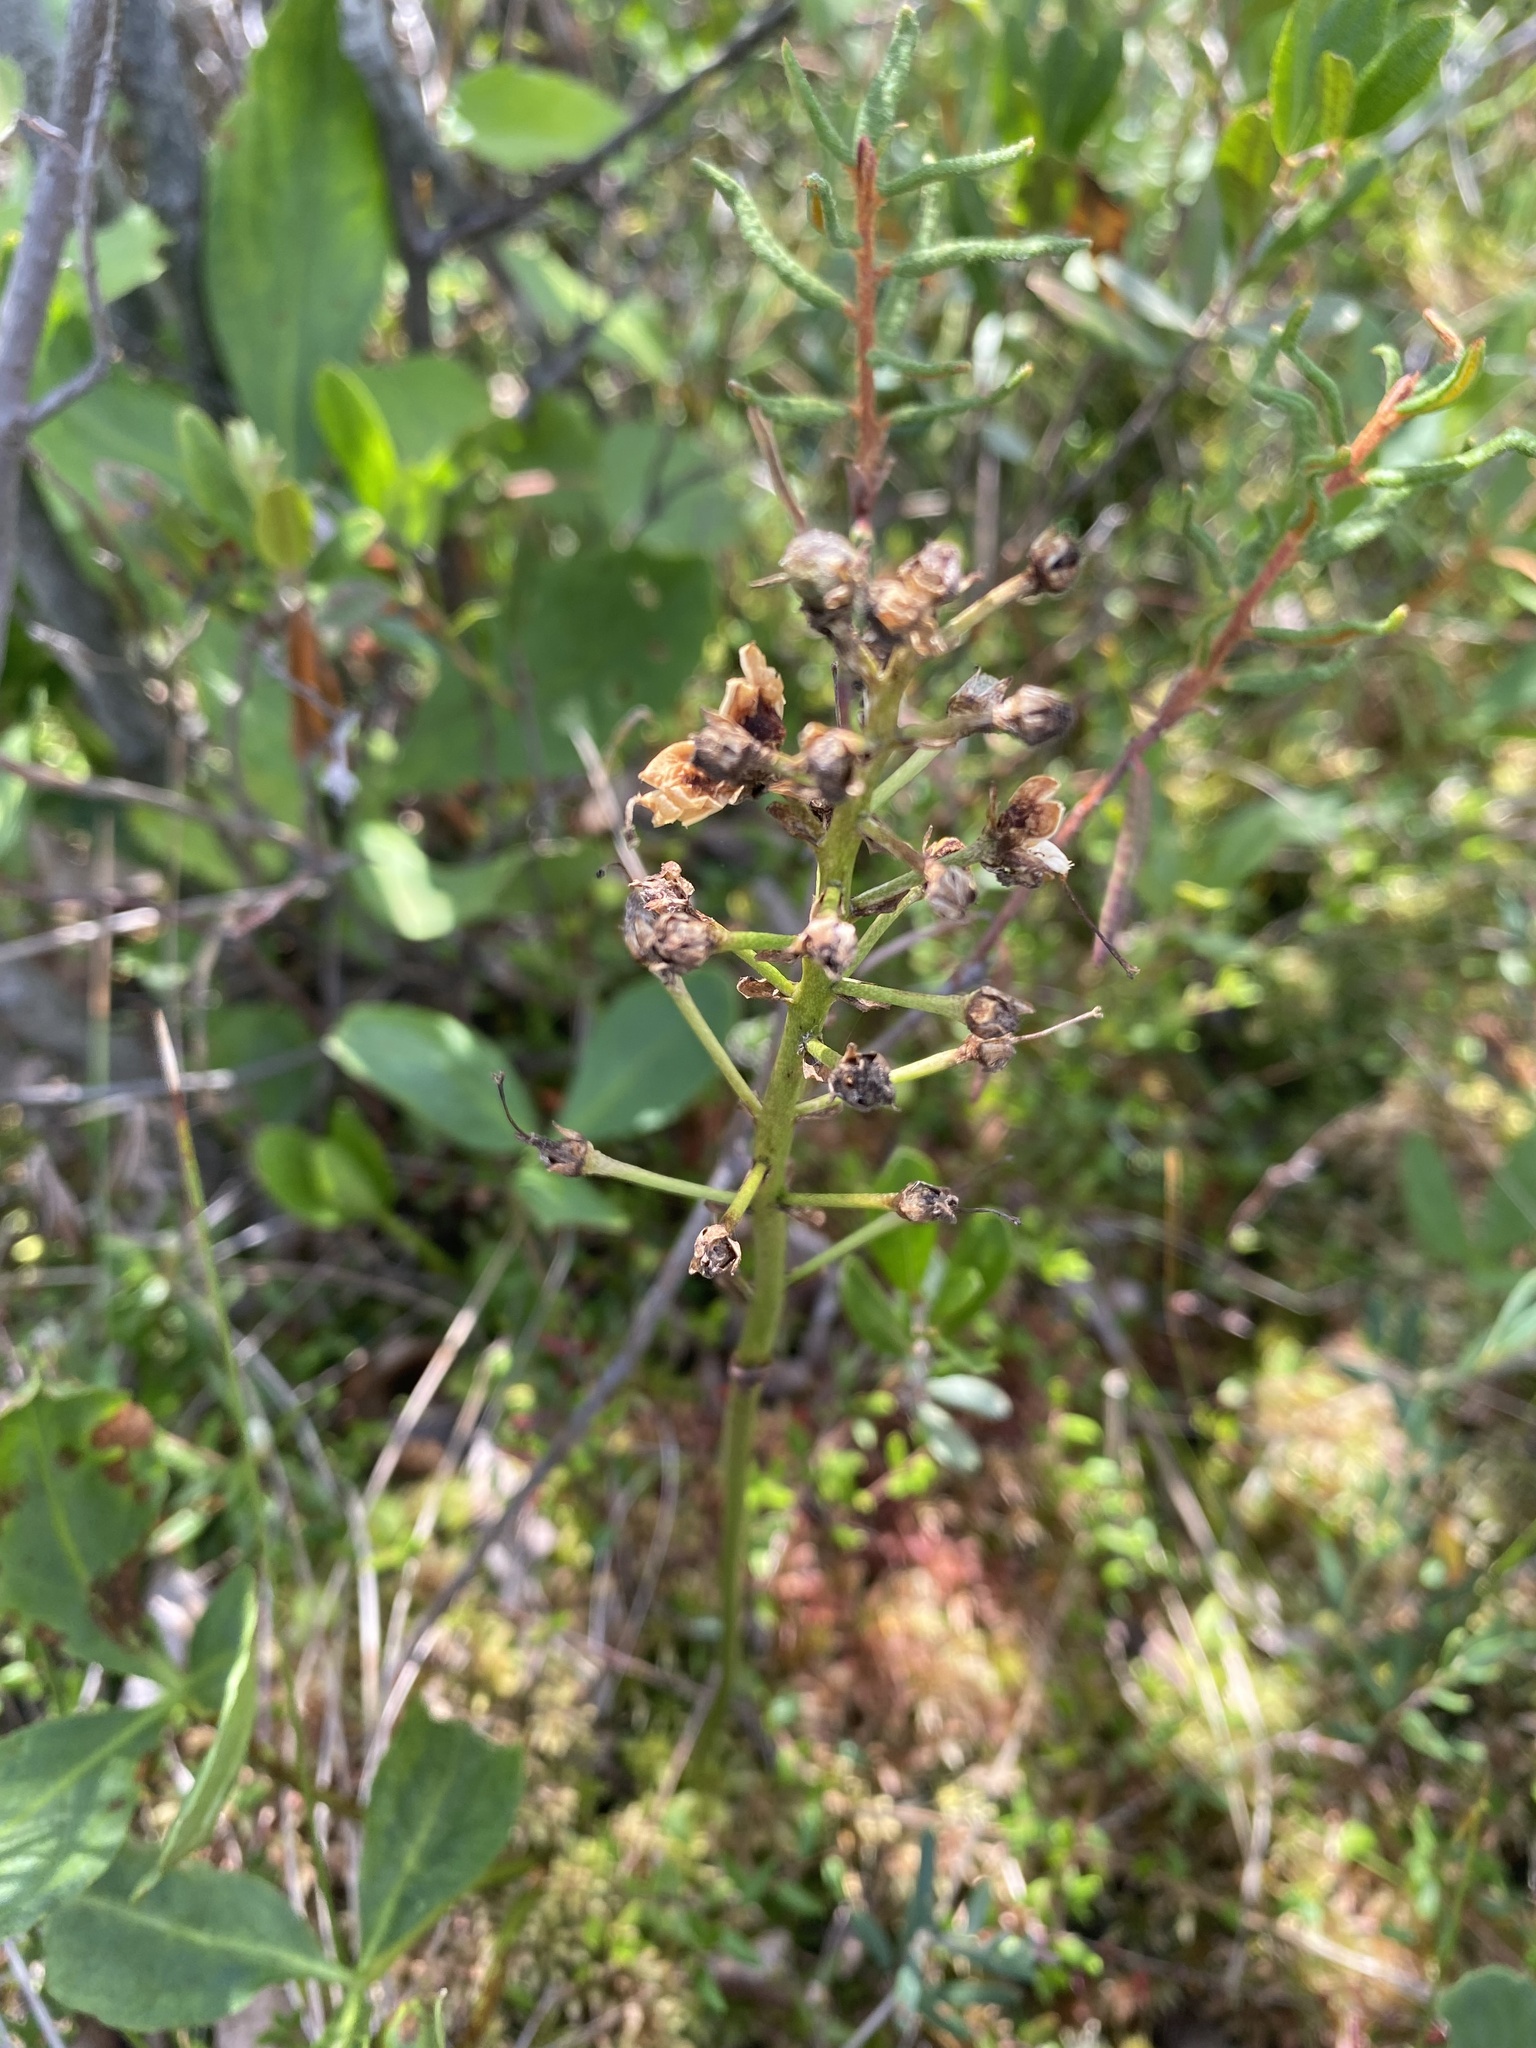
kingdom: Plantae
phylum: Tracheophyta
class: Magnoliopsida
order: Asterales
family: Menyanthaceae
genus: Menyanthes
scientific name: Menyanthes trifoliata
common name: Bogbean
